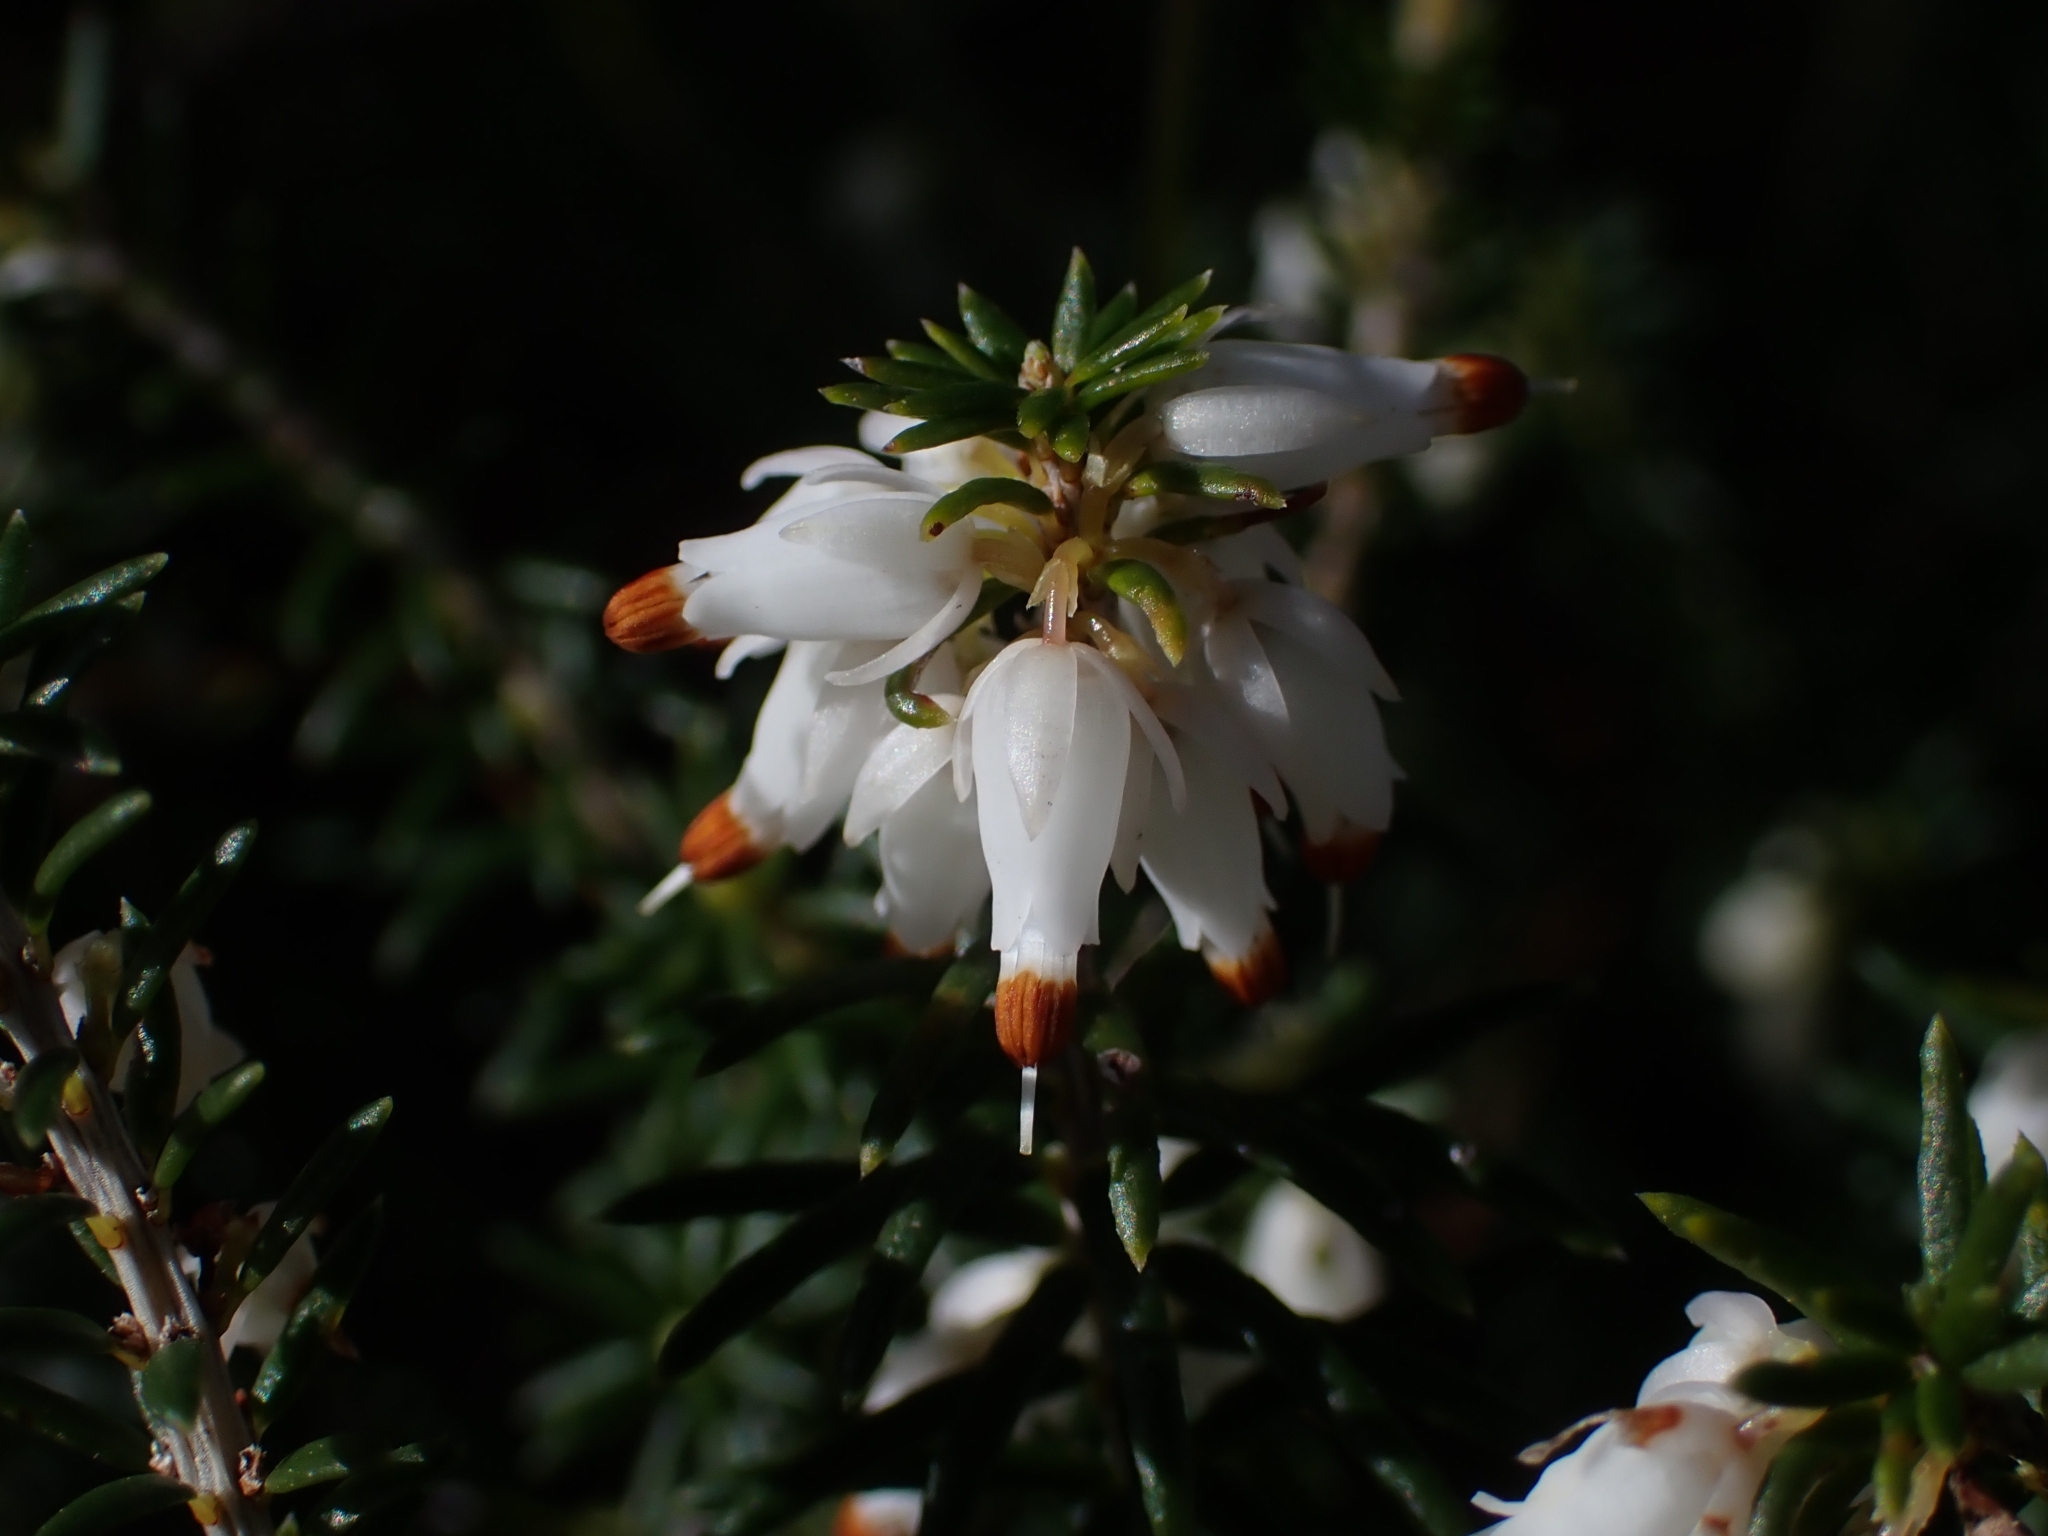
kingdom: Plantae
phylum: Tracheophyta
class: Magnoliopsida
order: Ericales
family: Ericaceae
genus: Erica
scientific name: Erica carnea
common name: Winter heath
